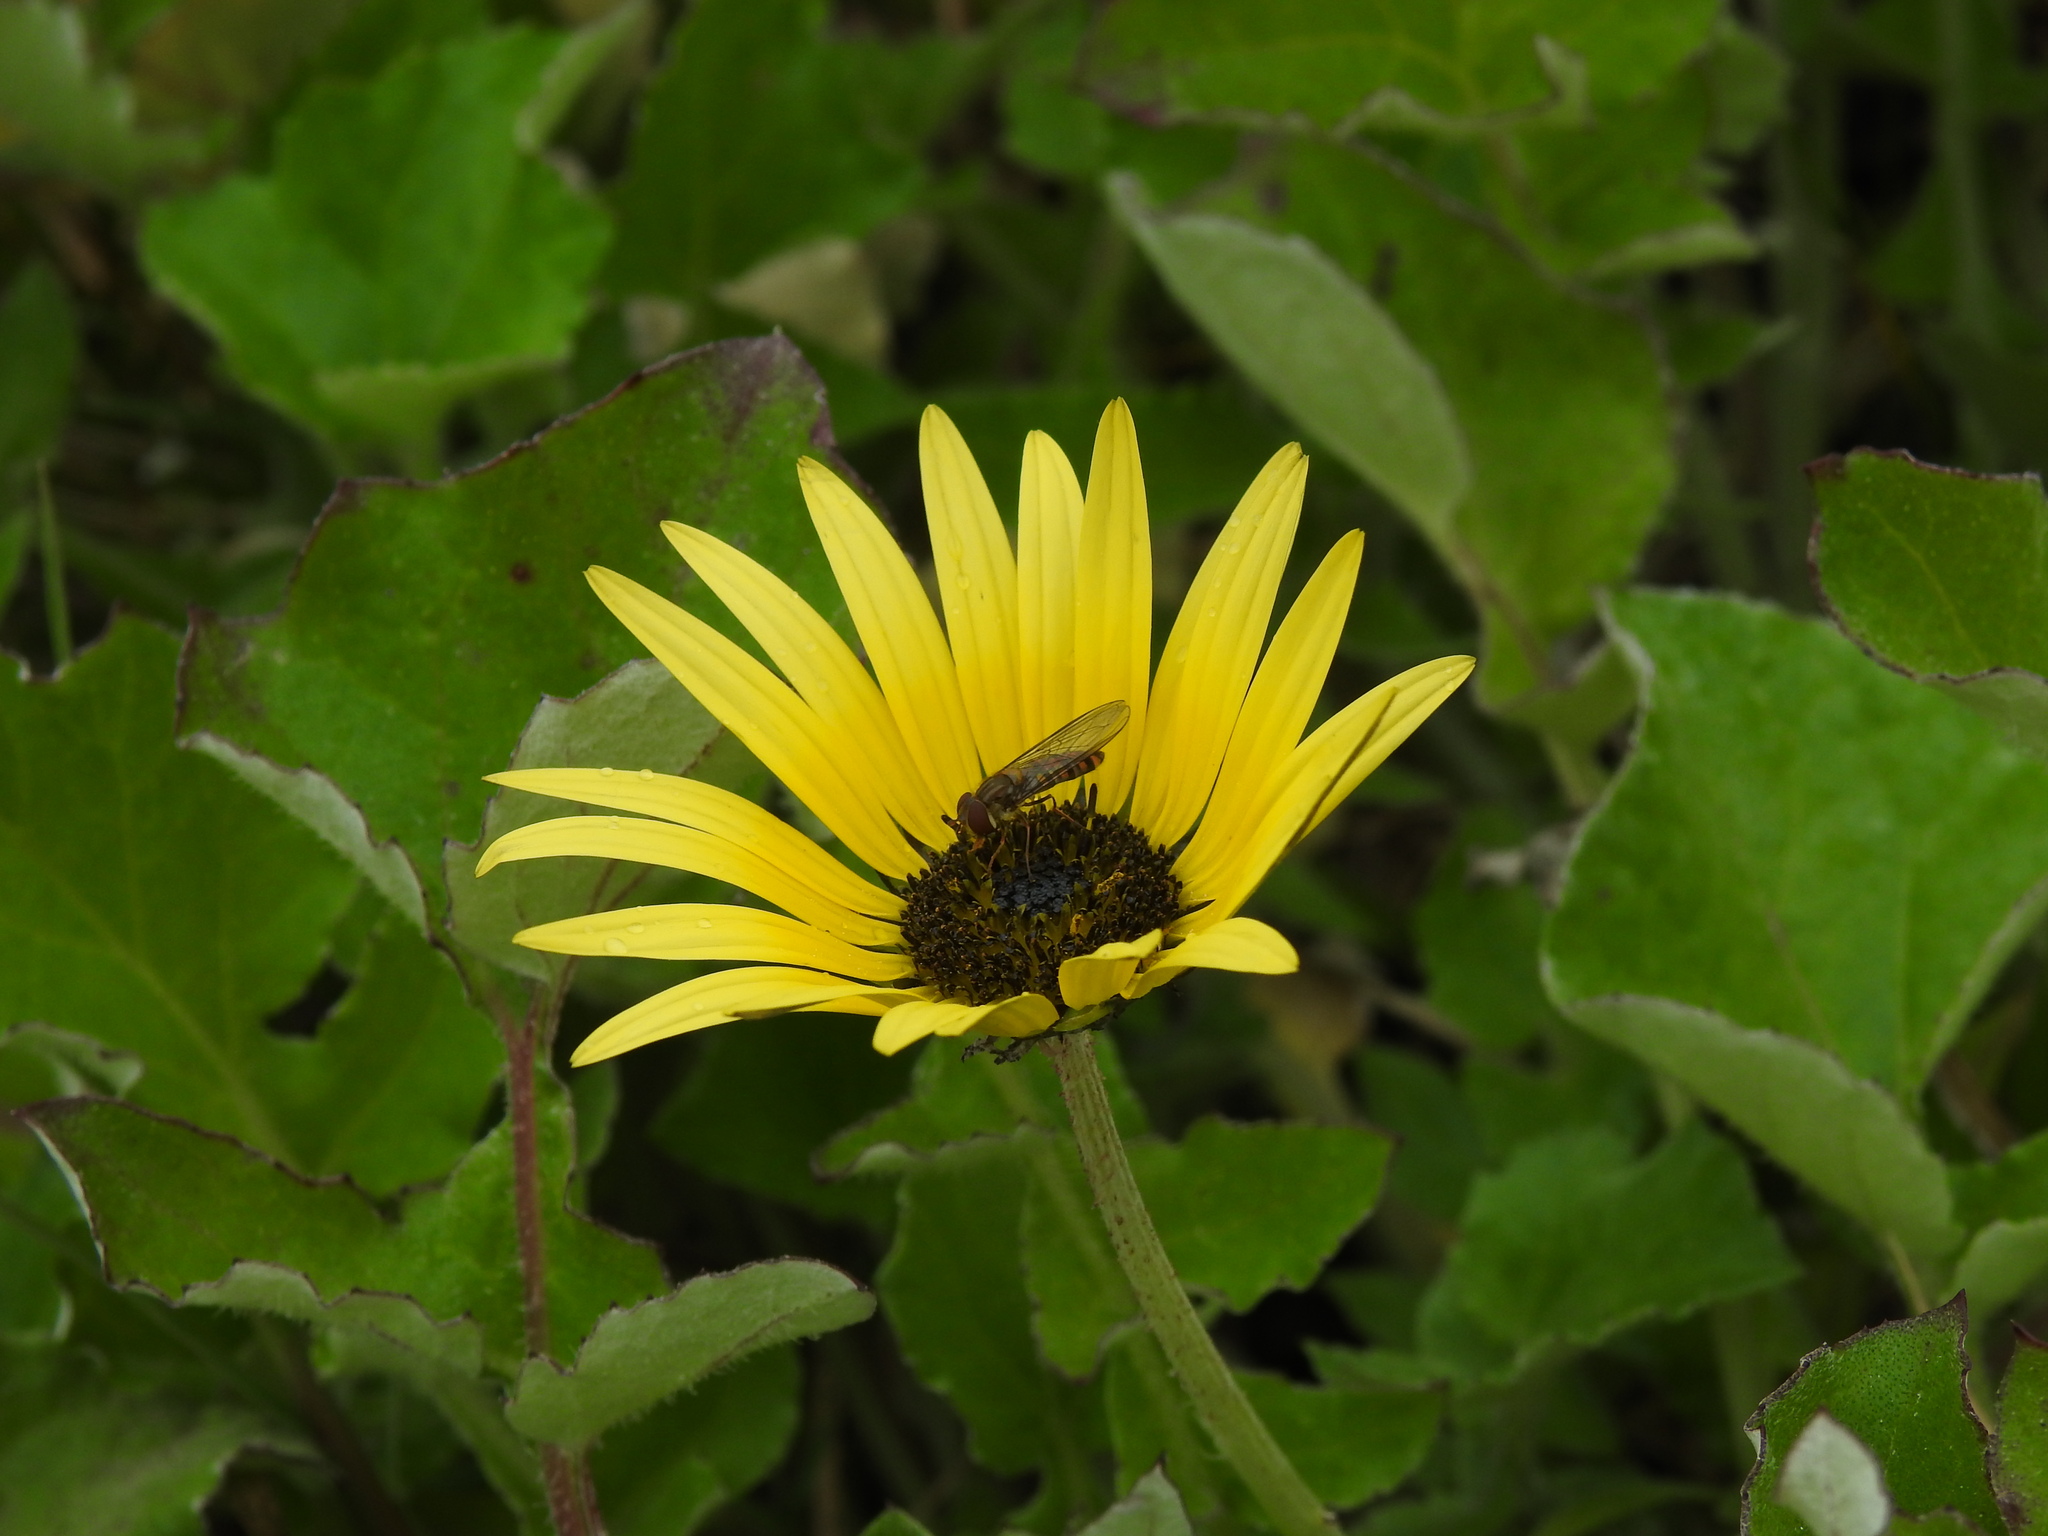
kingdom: Animalia
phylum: Arthropoda
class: Insecta
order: Diptera
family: Syrphidae
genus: Episyrphus
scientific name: Episyrphus balteatus
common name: Marmalade hoverfly
